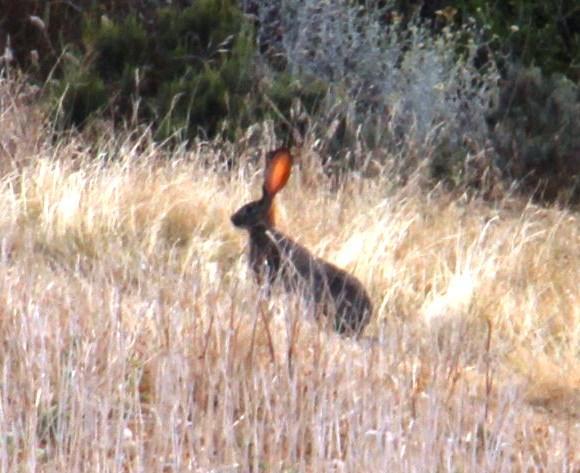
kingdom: Animalia
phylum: Chordata
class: Mammalia
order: Lagomorpha
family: Leporidae
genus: Lepus
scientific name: Lepus saxatilis
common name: Scrub hare
